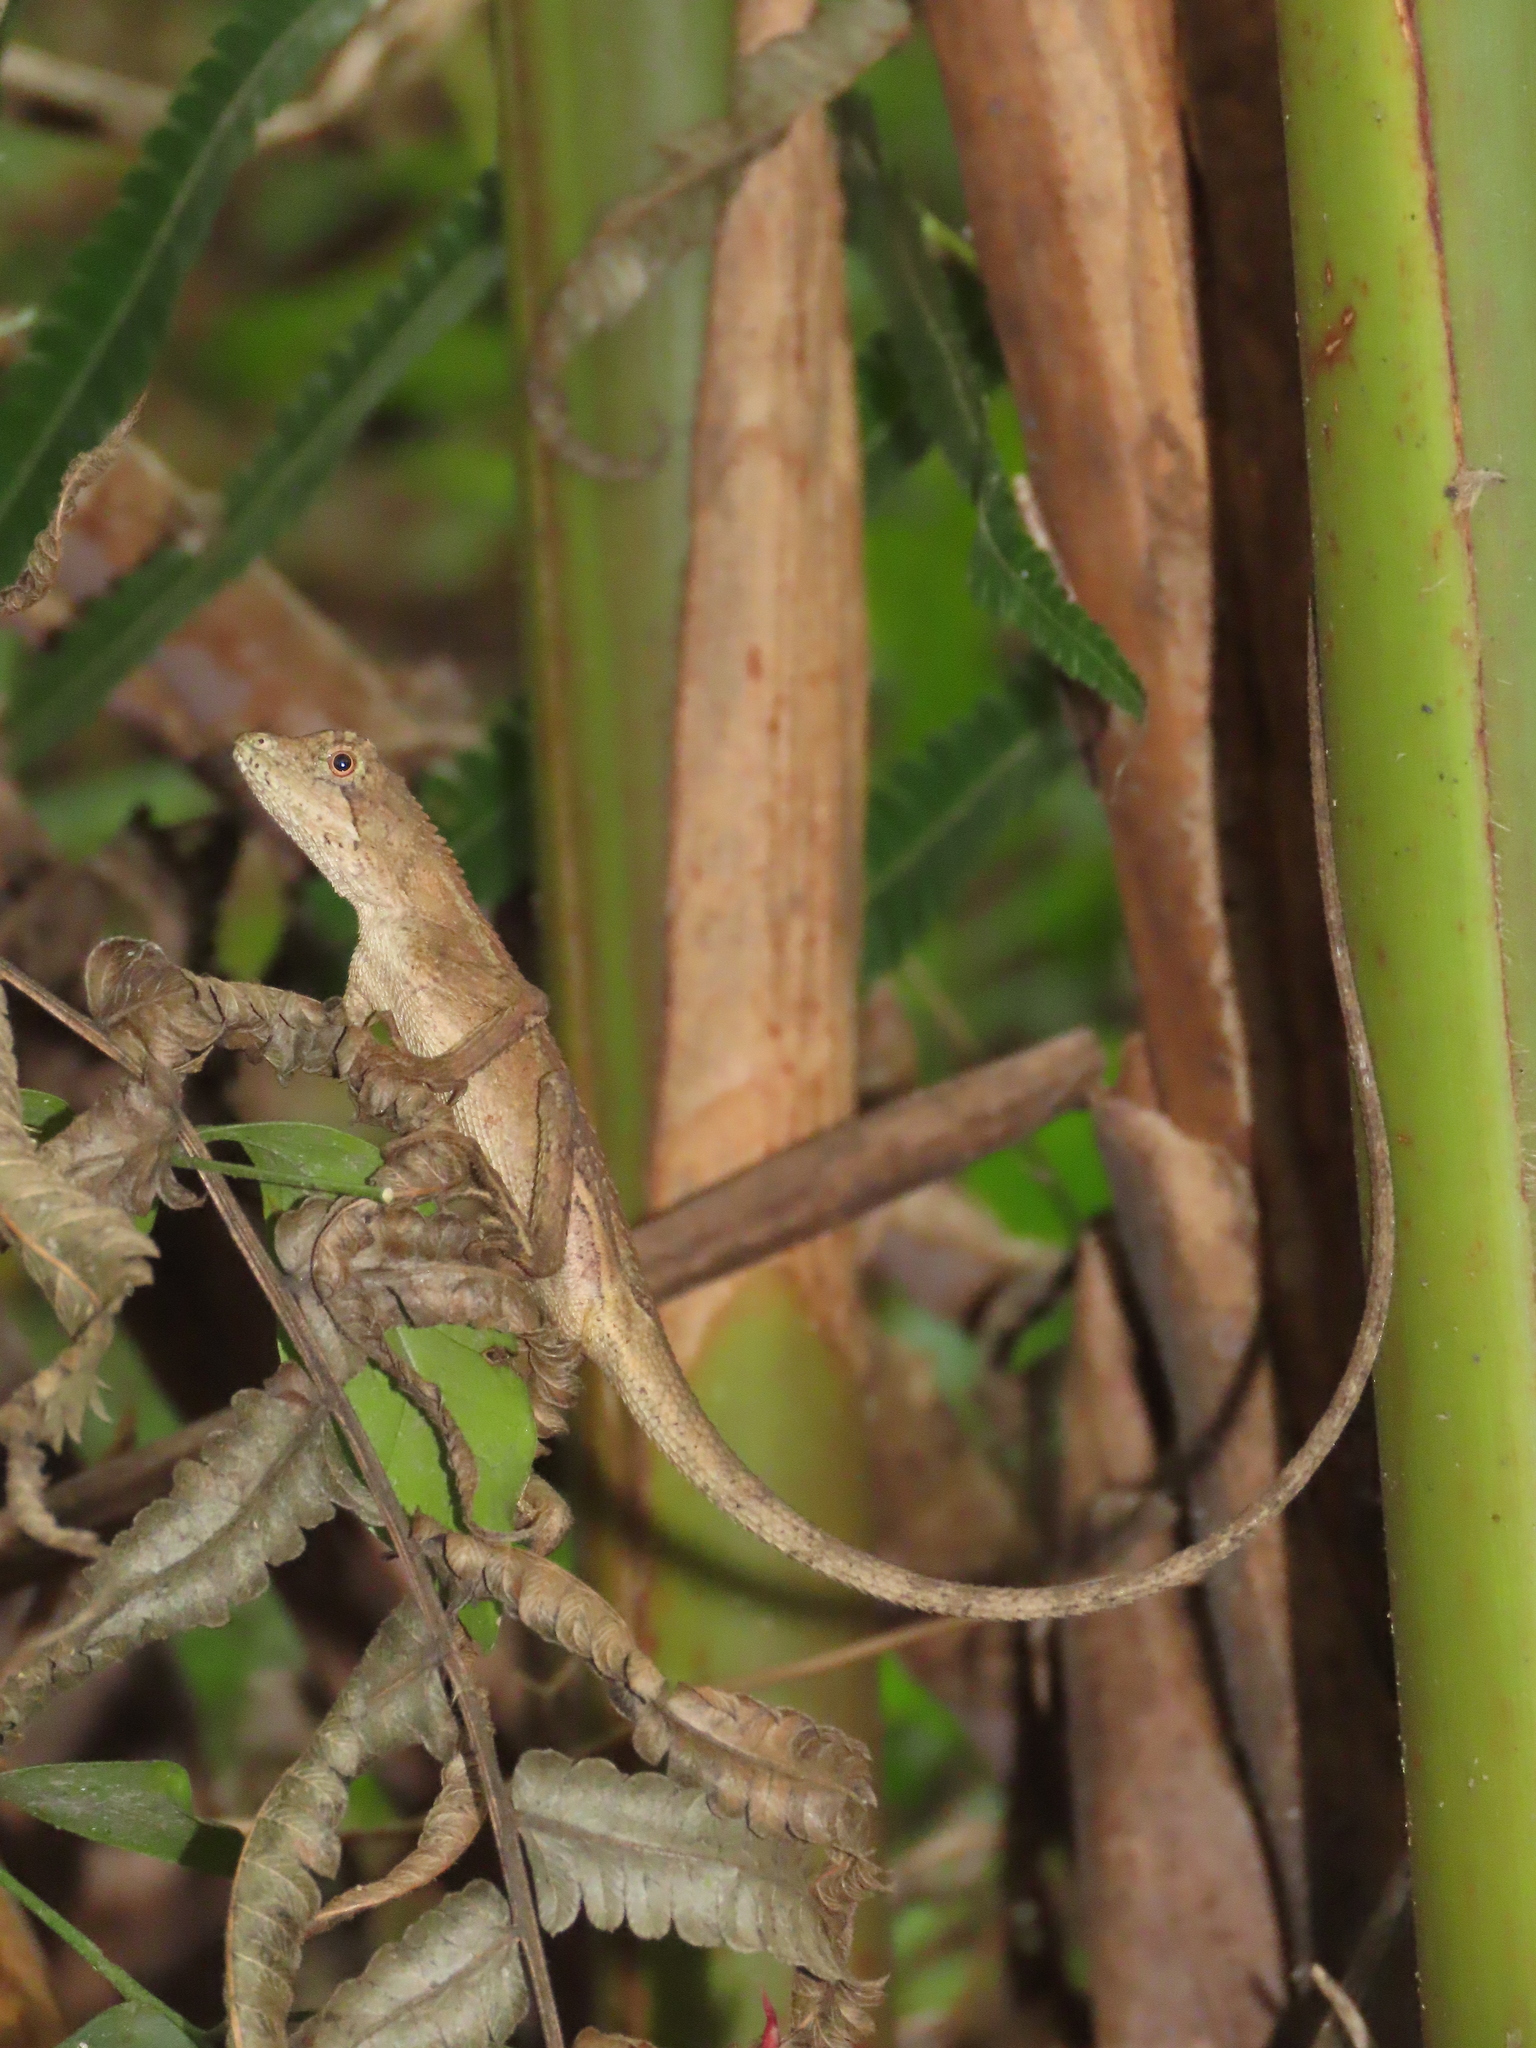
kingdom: Animalia
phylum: Chordata
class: Squamata
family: Agamidae
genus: Diploderma
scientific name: Diploderma swinhonis
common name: Taiwan japalure
